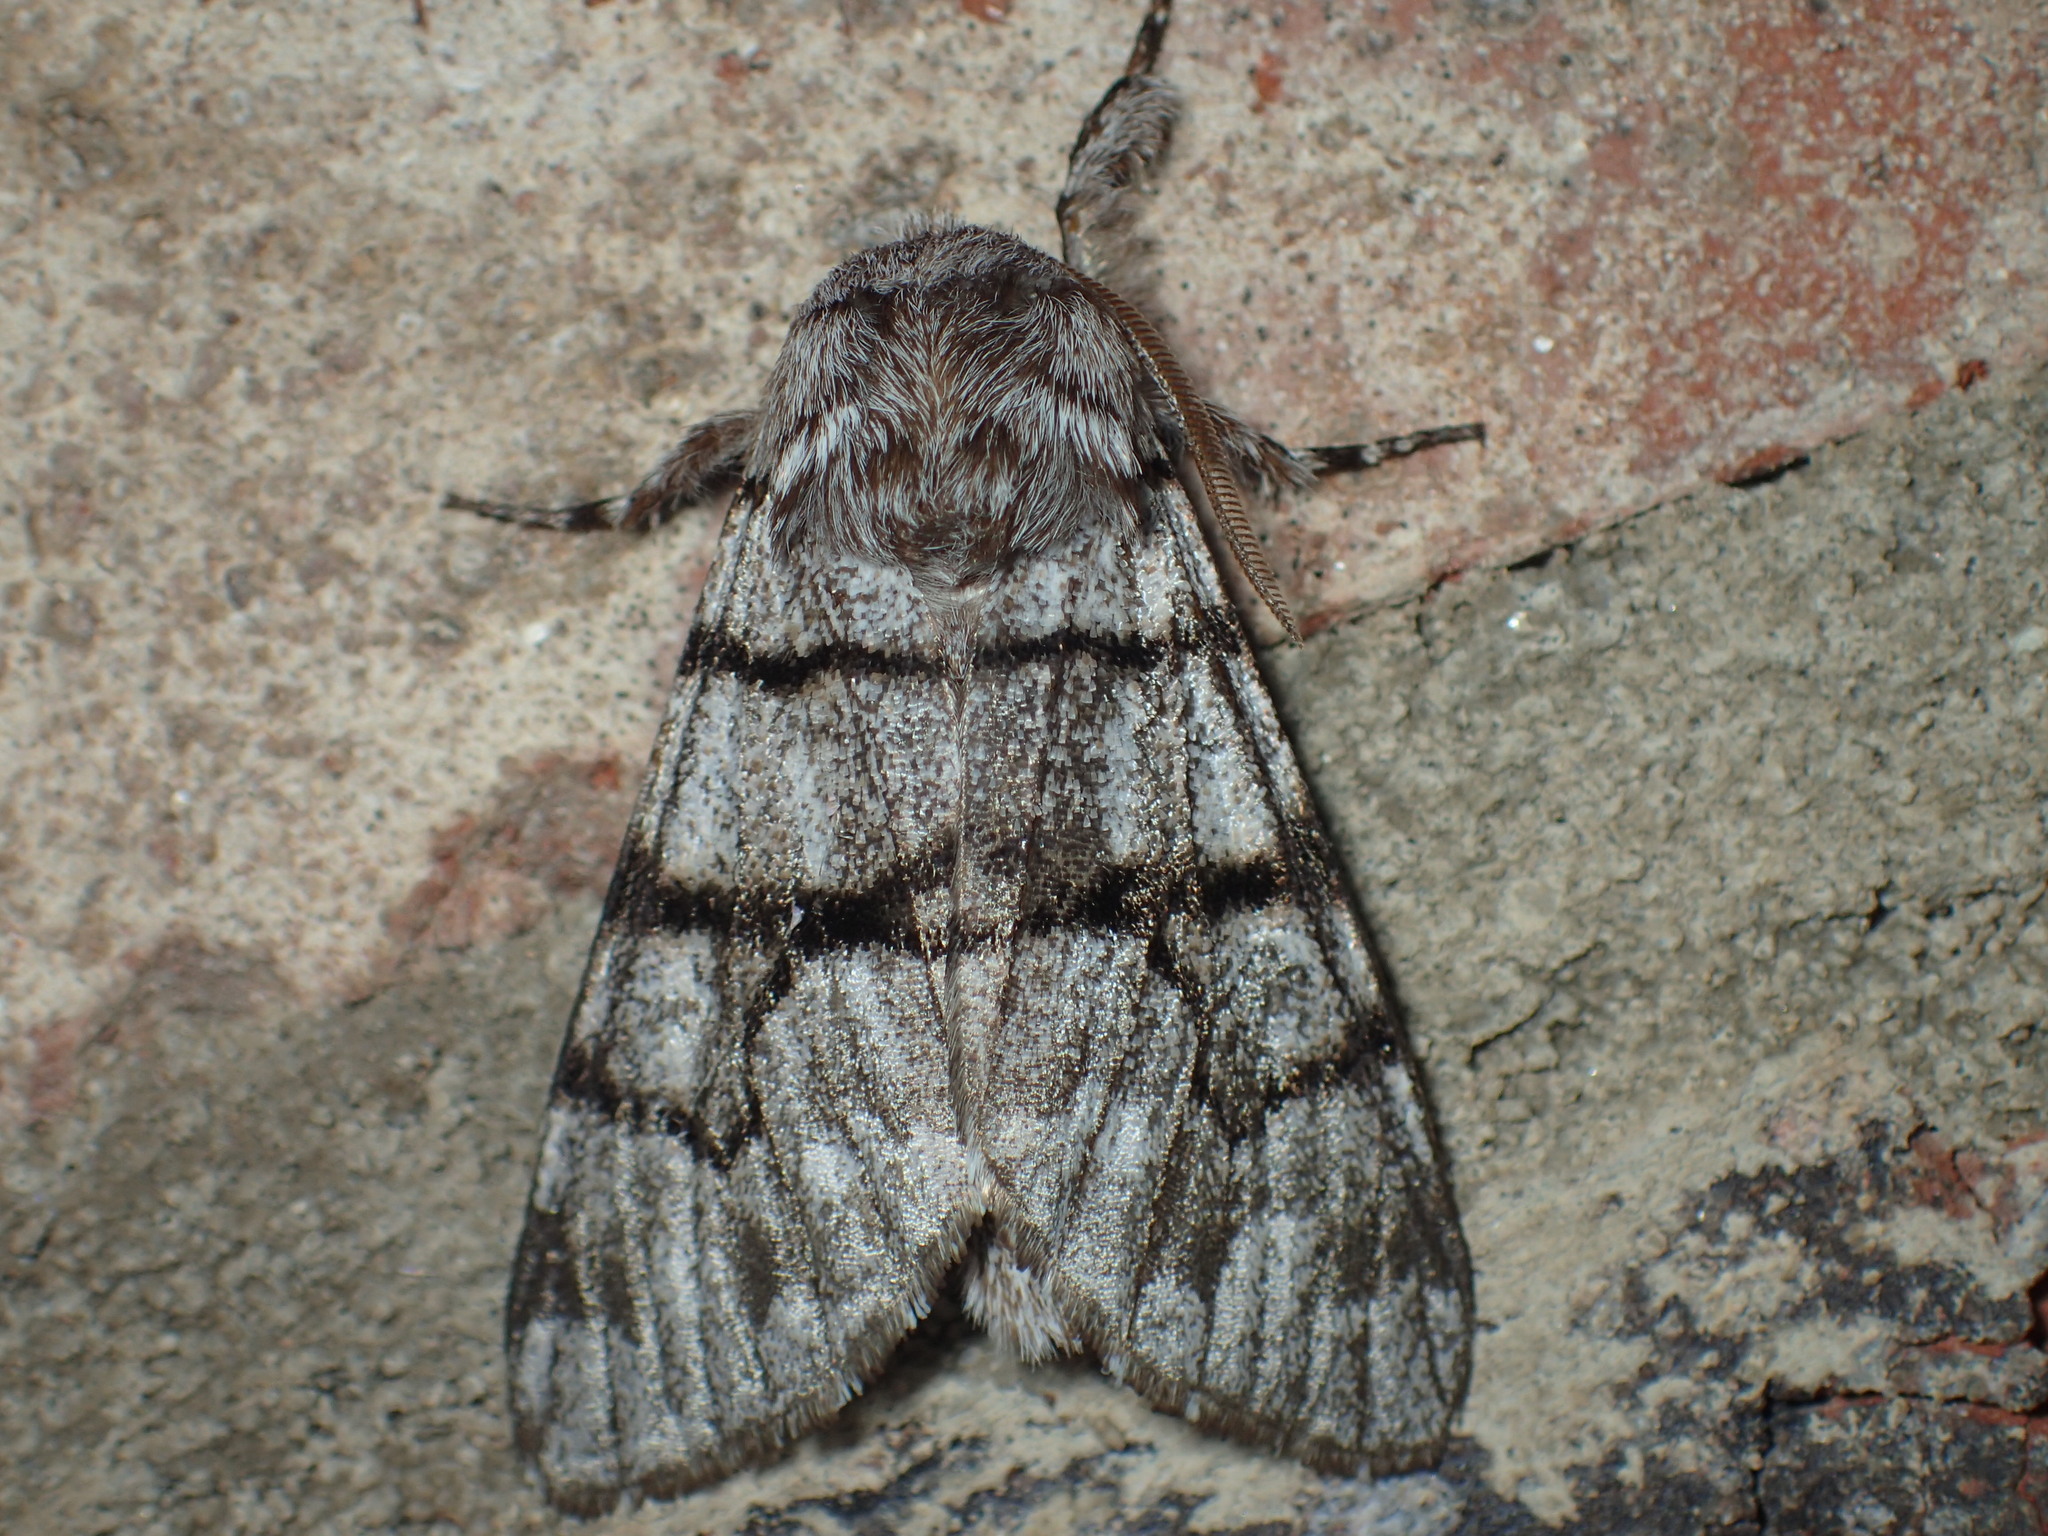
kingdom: Animalia
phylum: Arthropoda
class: Insecta
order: Lepidoptera
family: Noctuidae
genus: Panthea
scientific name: Panthea furcilla
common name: Eastern panthea moth
